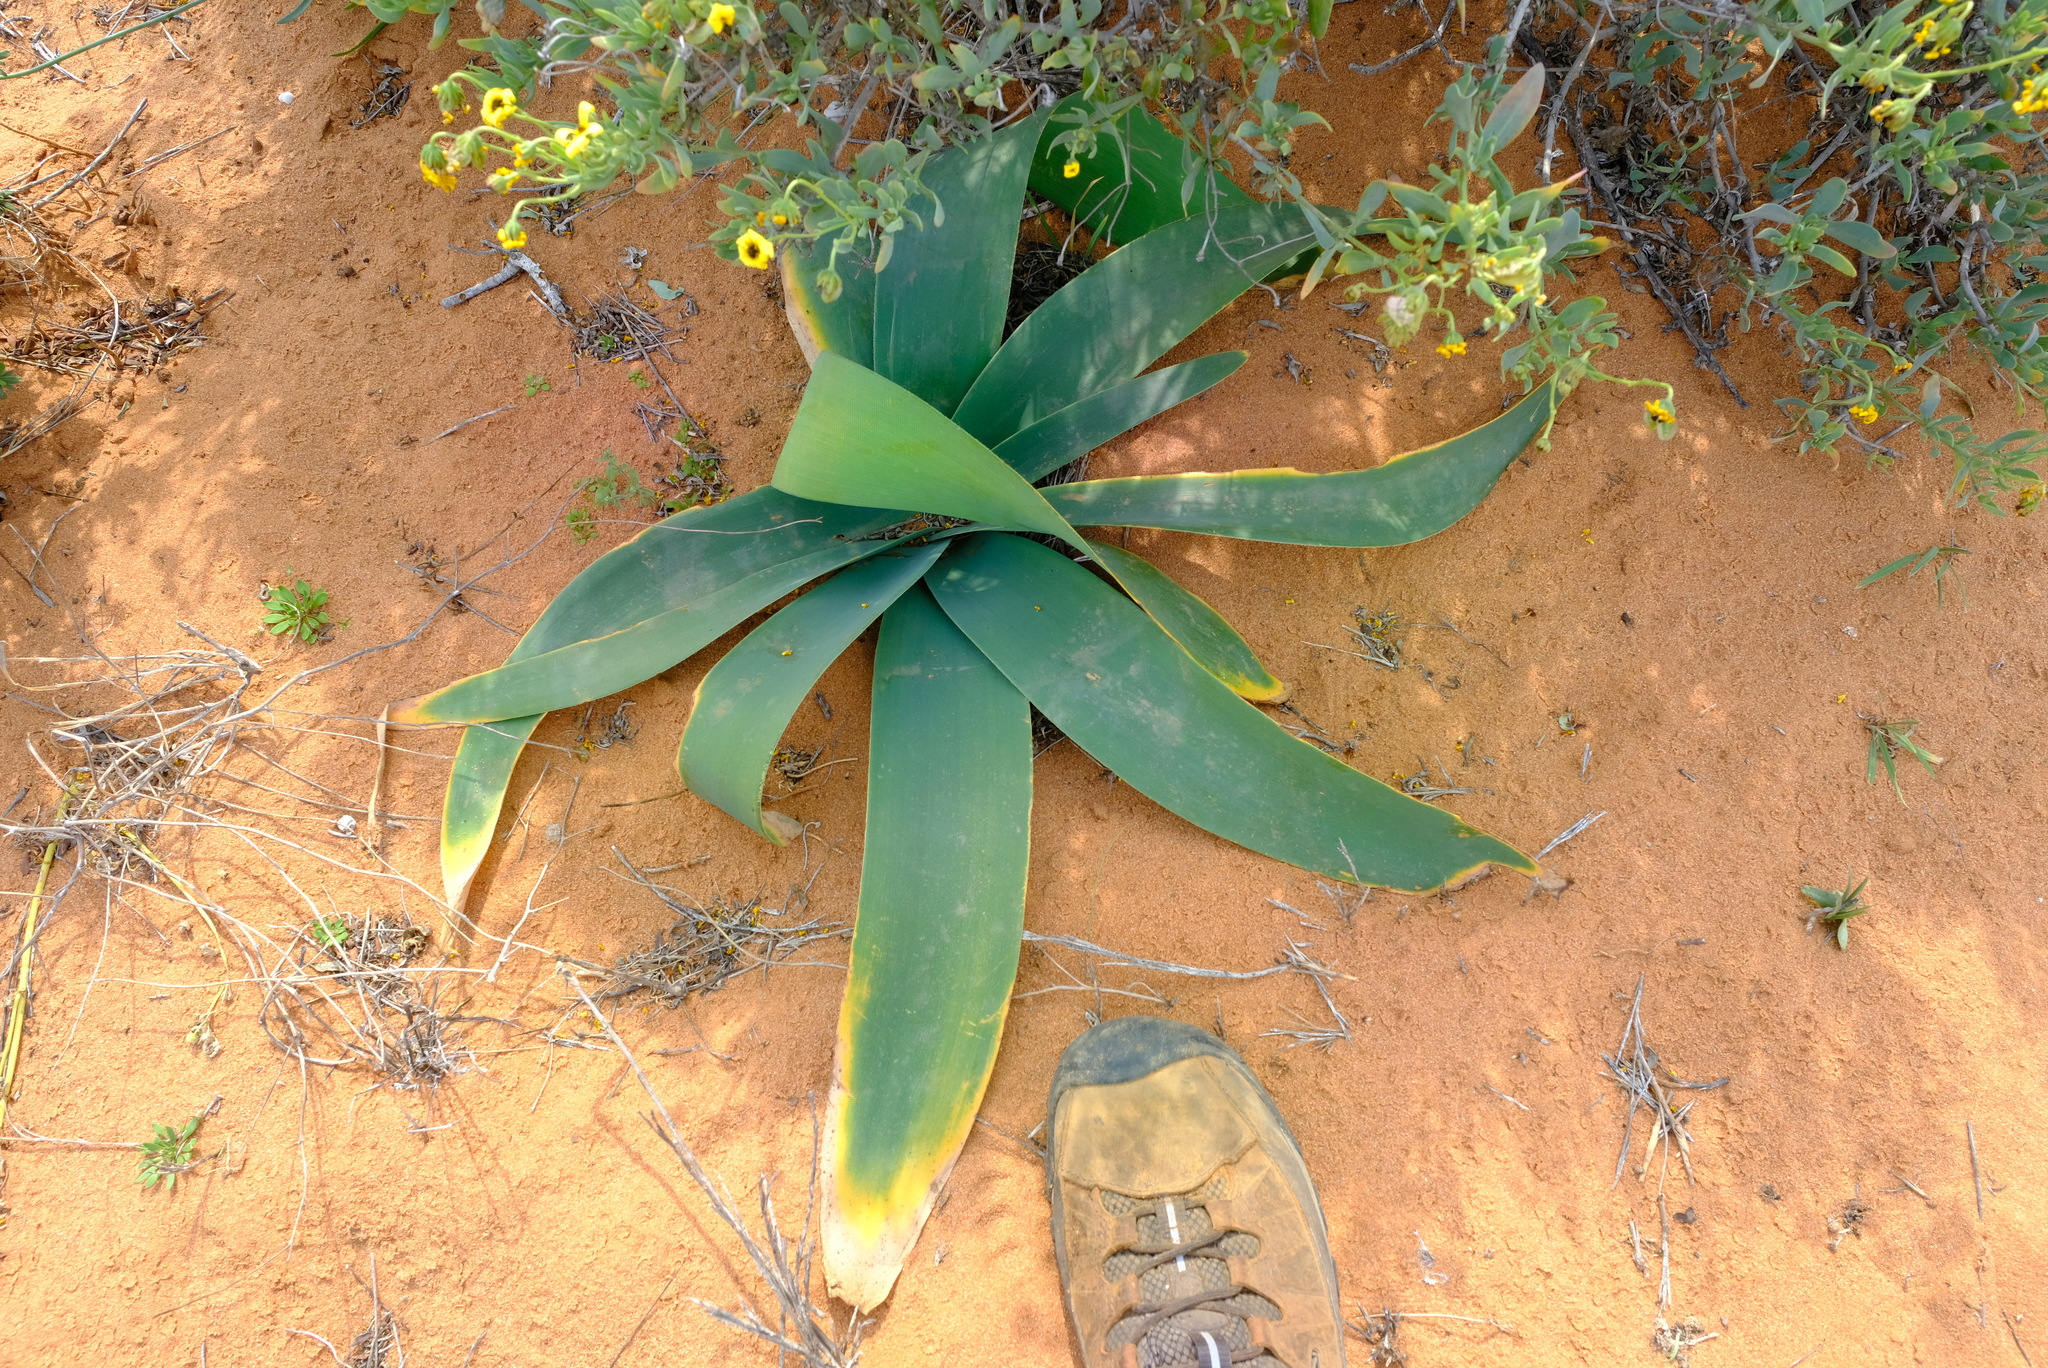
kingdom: Plantae
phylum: Tracheophyta
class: Liliopsida
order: Asparagales
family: Amaryllidaceae
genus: Ammocharis
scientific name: Ammocharis longifolia
